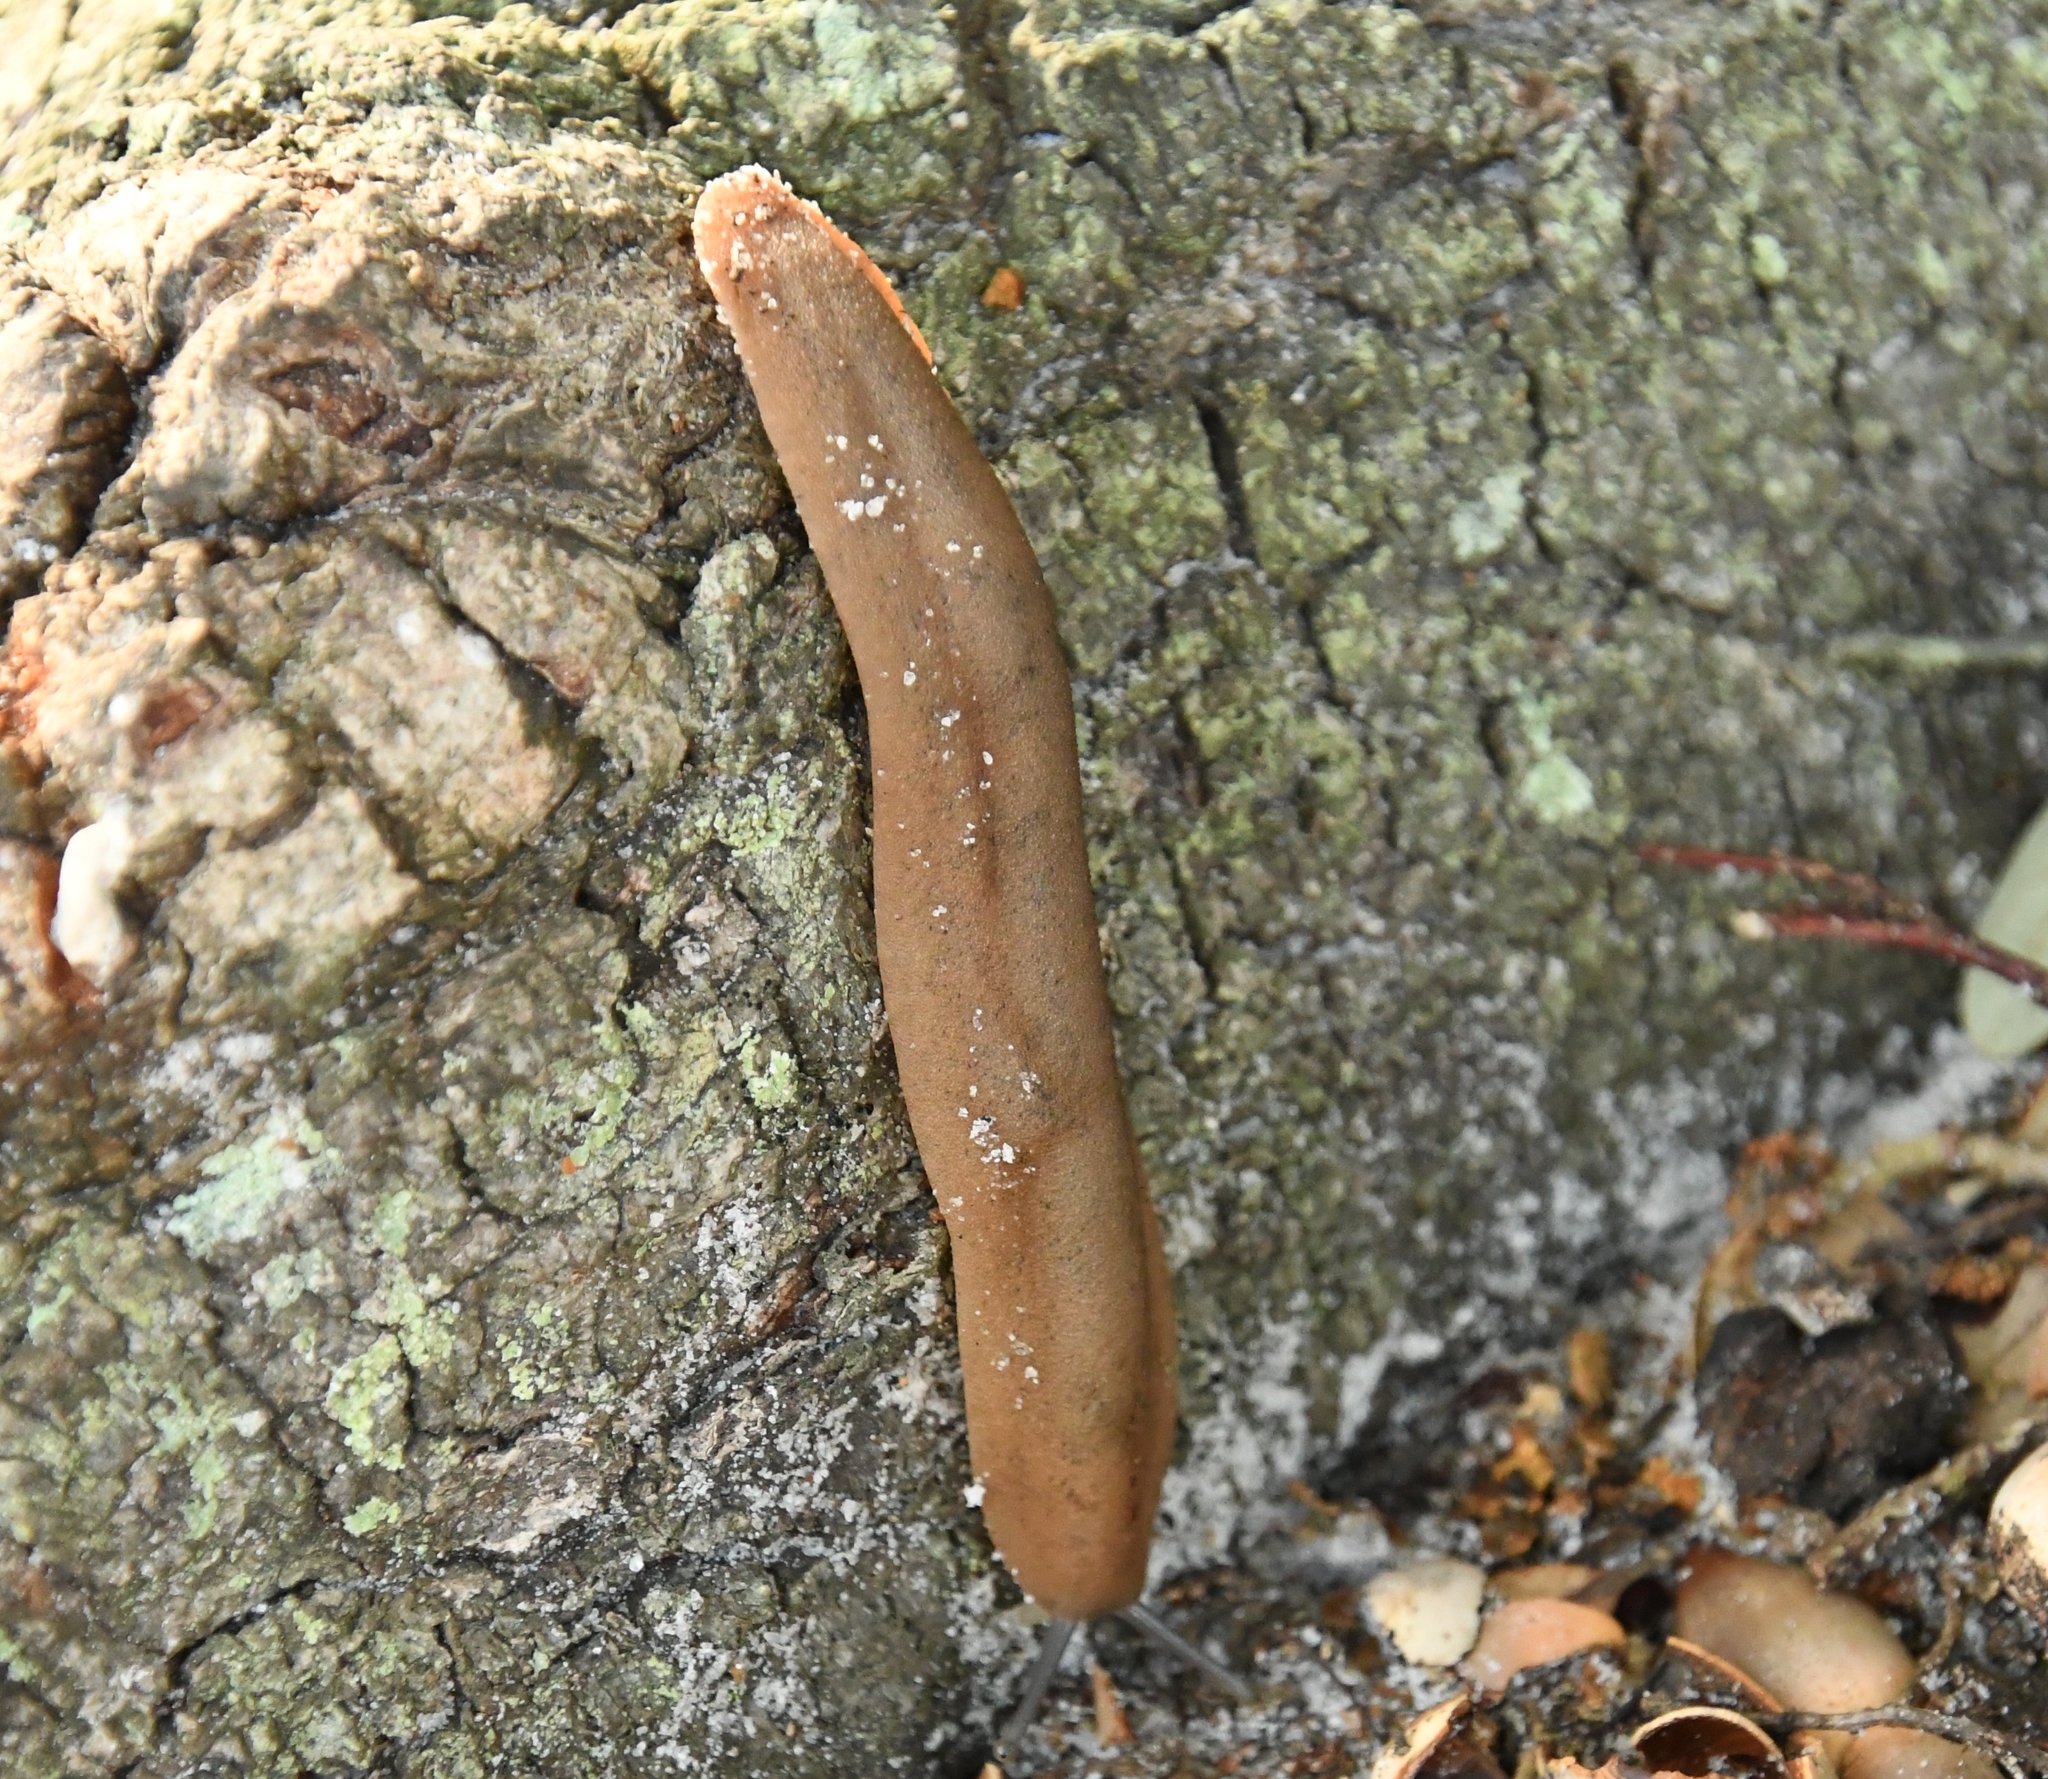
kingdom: Animalia
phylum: Mollusca
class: Gastropoda
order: Systellommatophora
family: Veronicellidae
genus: Sarasinula
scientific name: Sarasinula plebeia
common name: Caribbean leatherleaf
